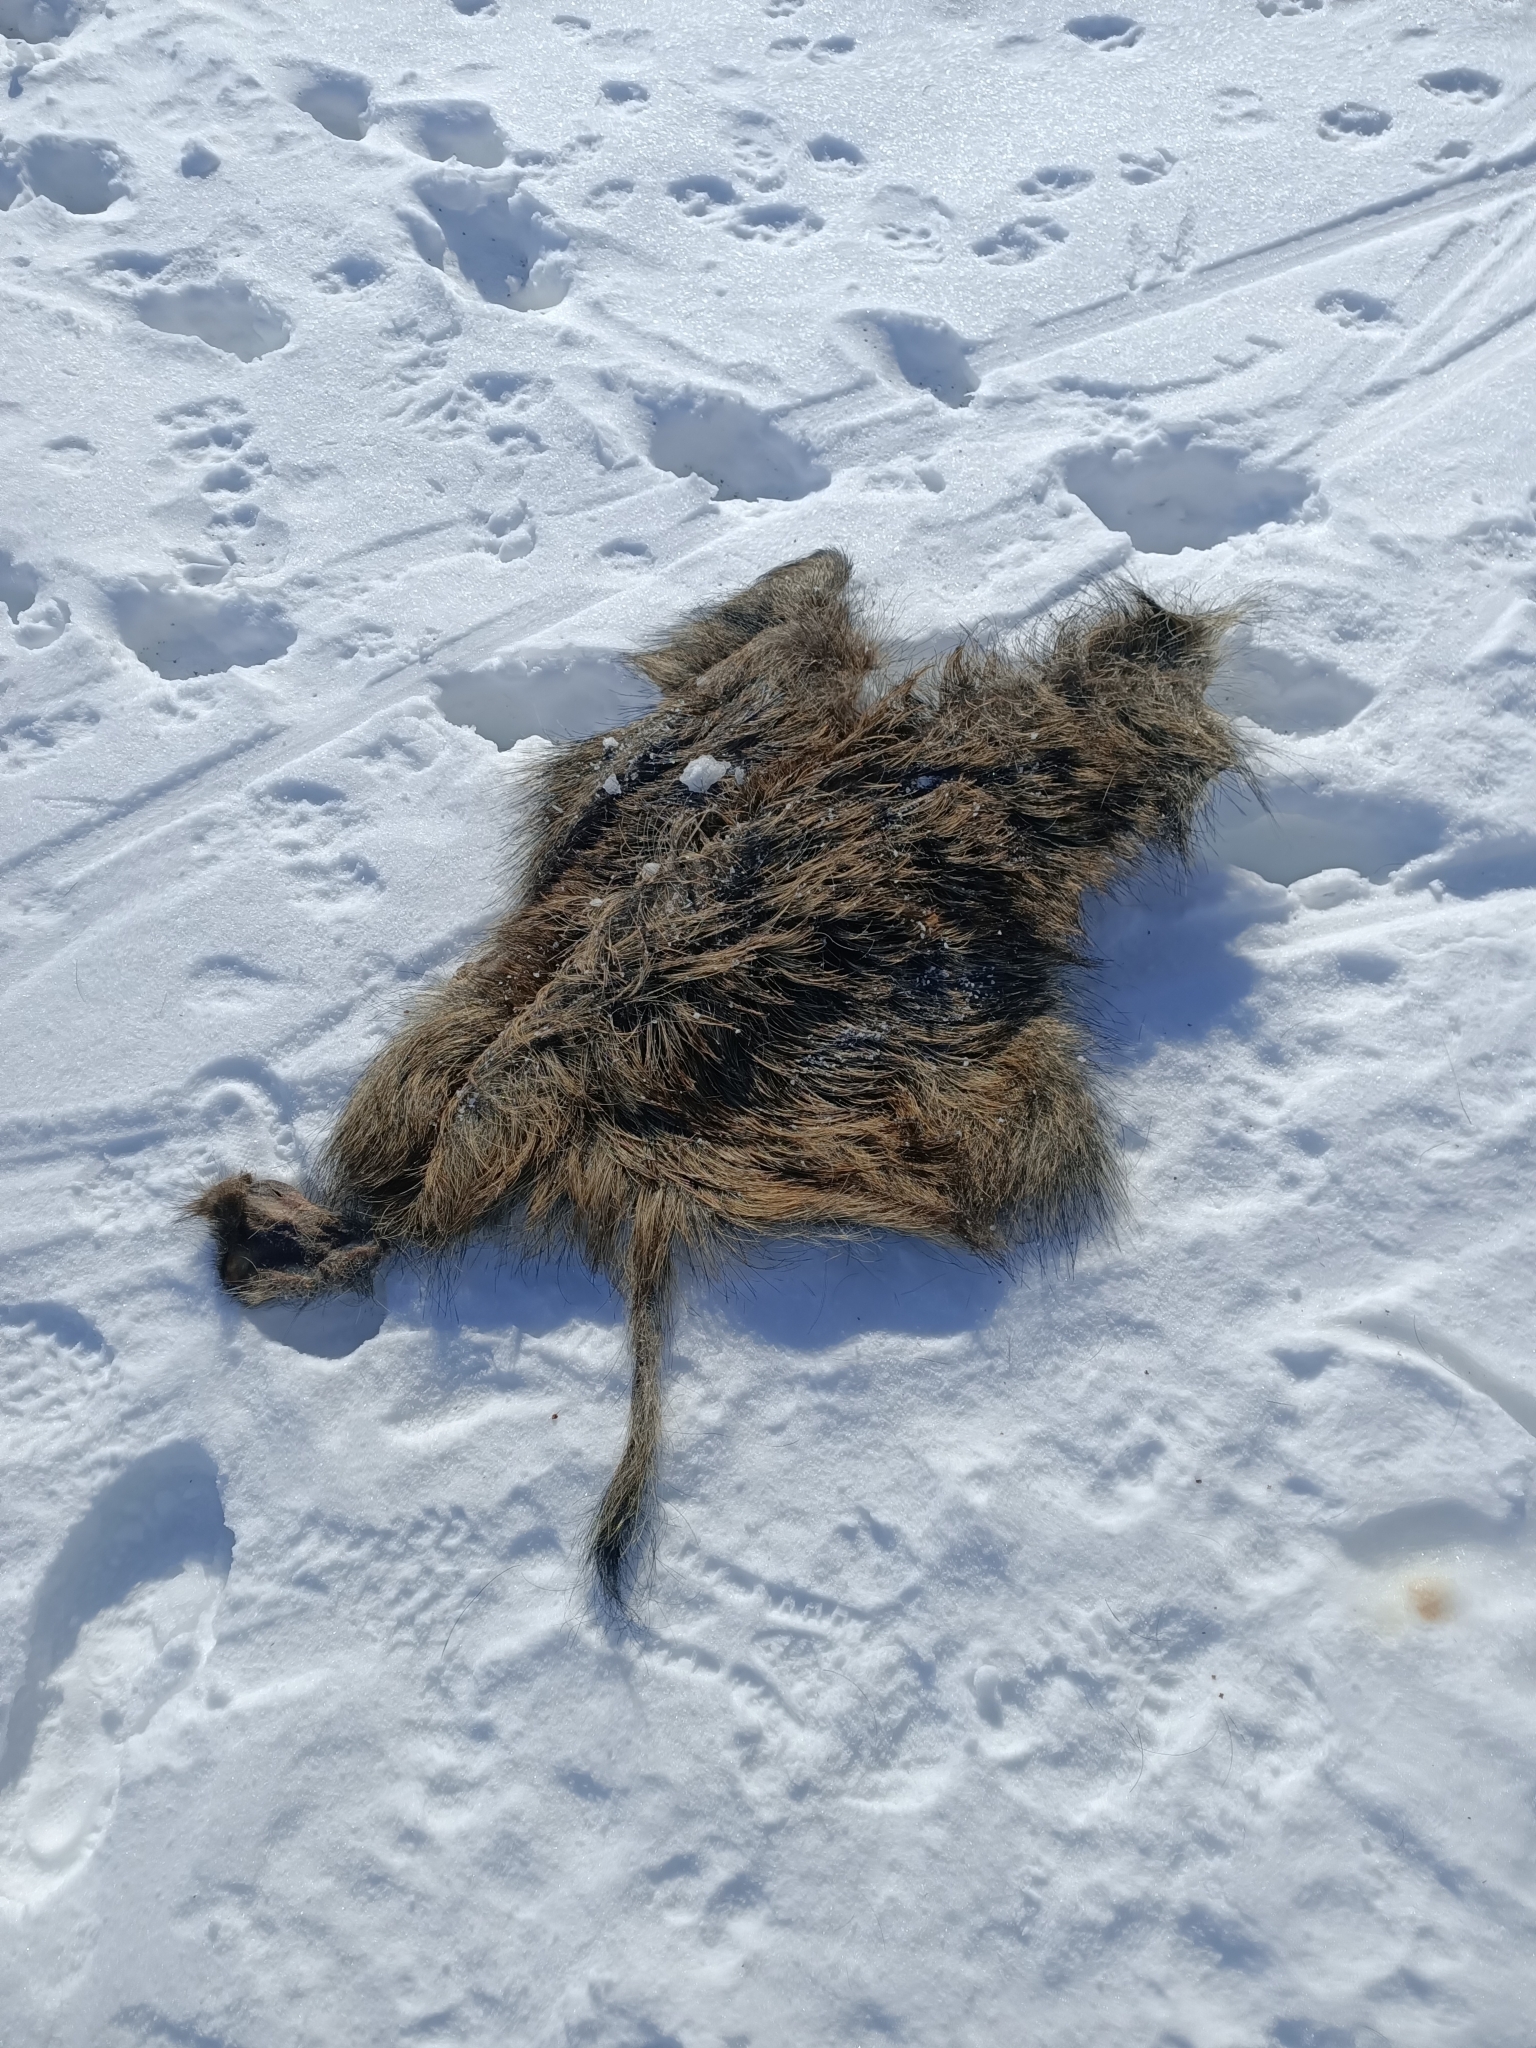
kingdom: Animalia
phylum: Chordata
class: Mammalia
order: Artiodactyla
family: Suidae
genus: Sus
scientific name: Sus scrofa
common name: Wild boar
